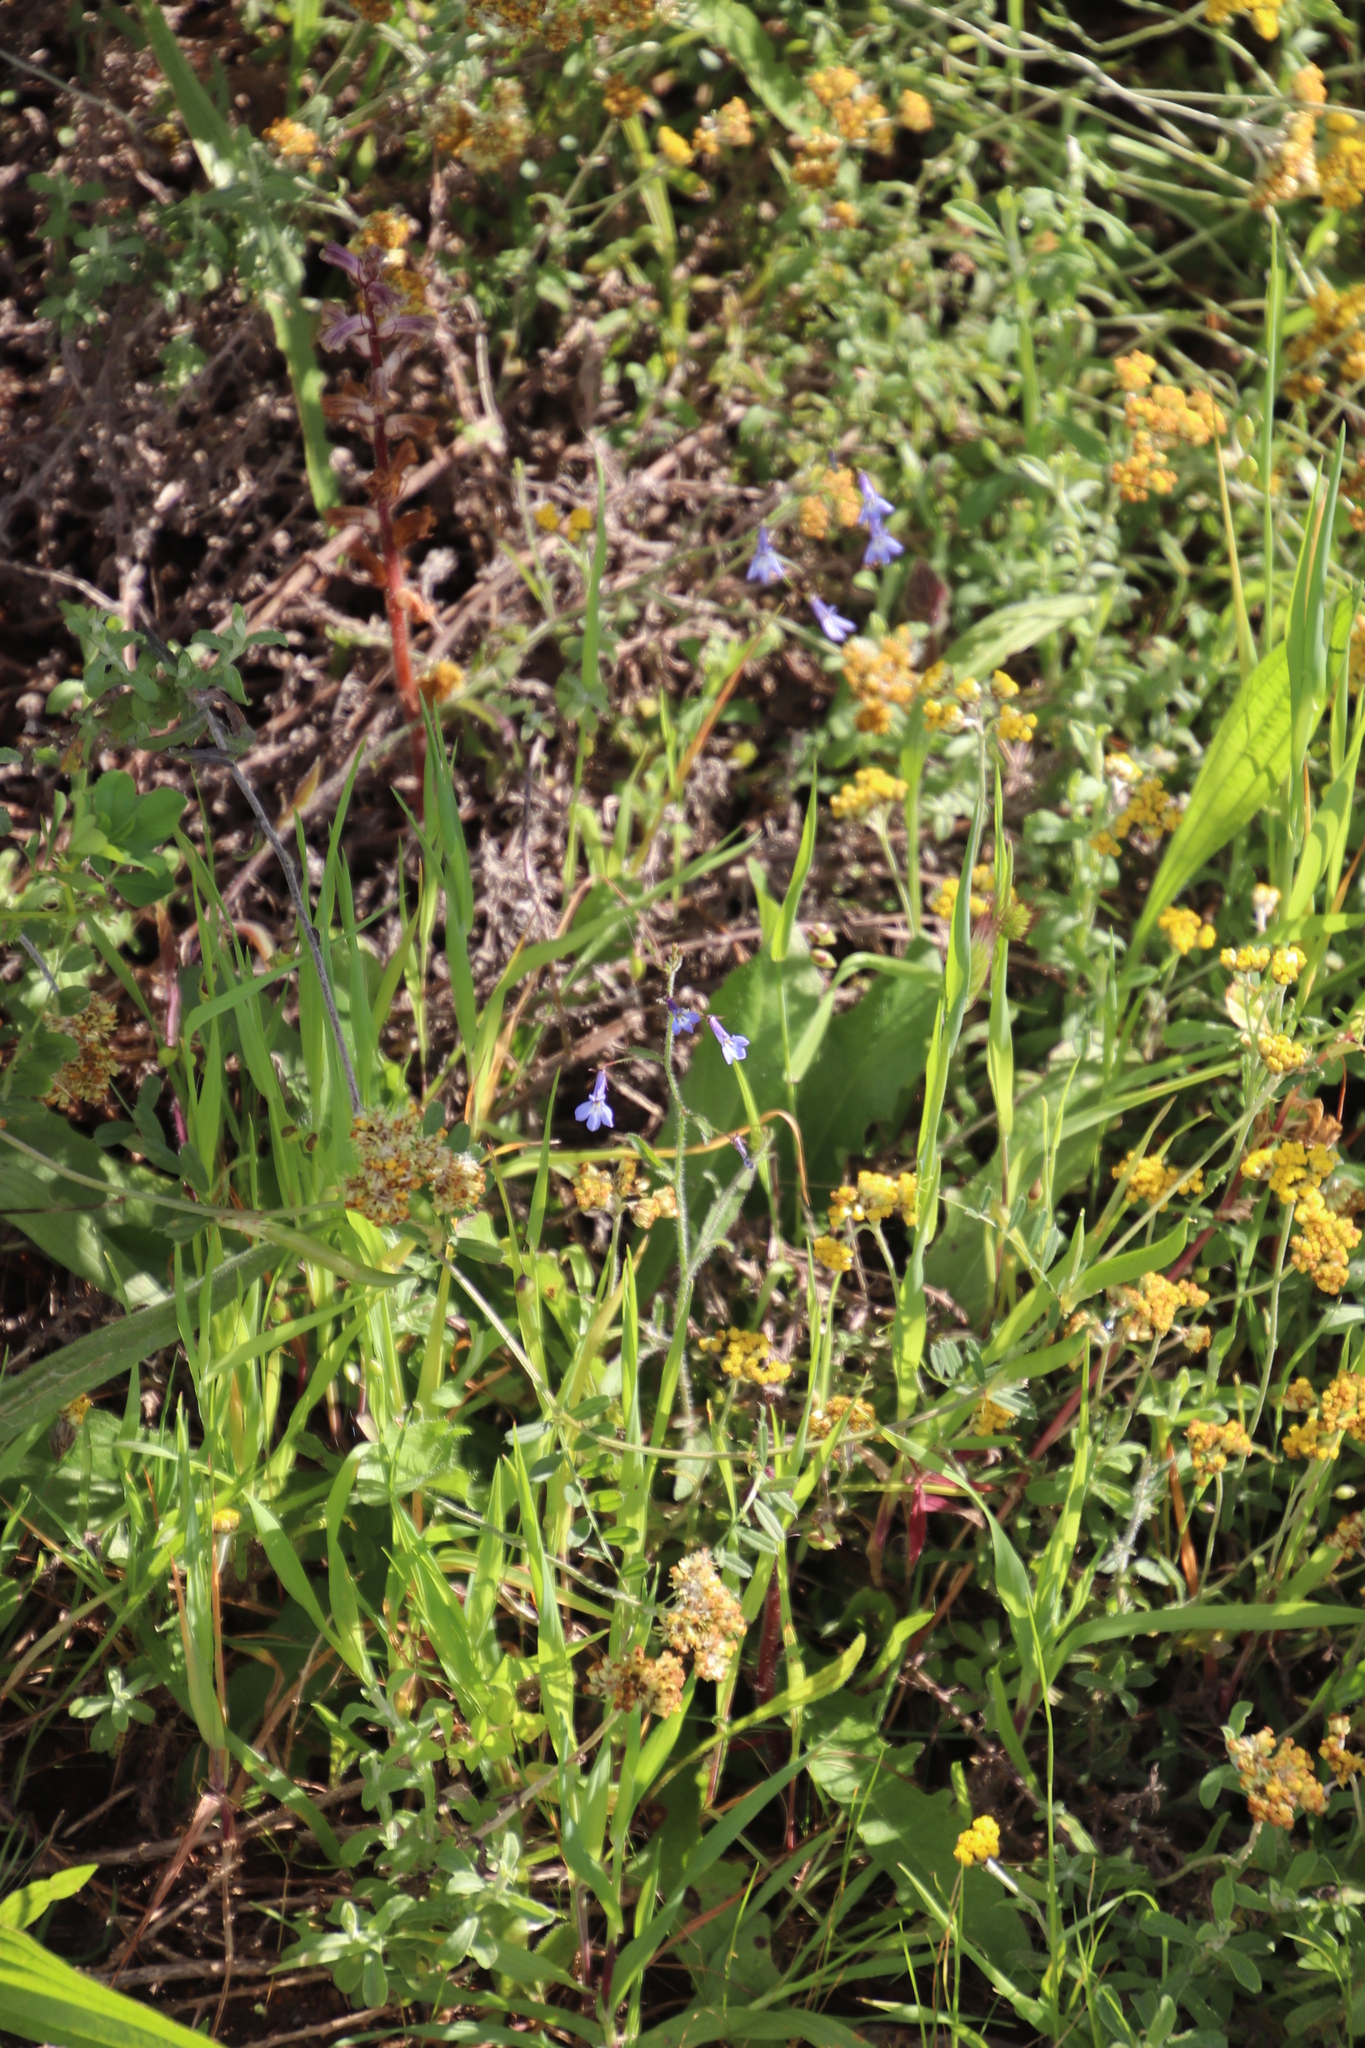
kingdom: Plantae
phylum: Tracheophyta
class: Magnoliopsida
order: Asterales
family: Campanulaceae
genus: Lobelia
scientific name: Lobelia erinus
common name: Edging lobelia
